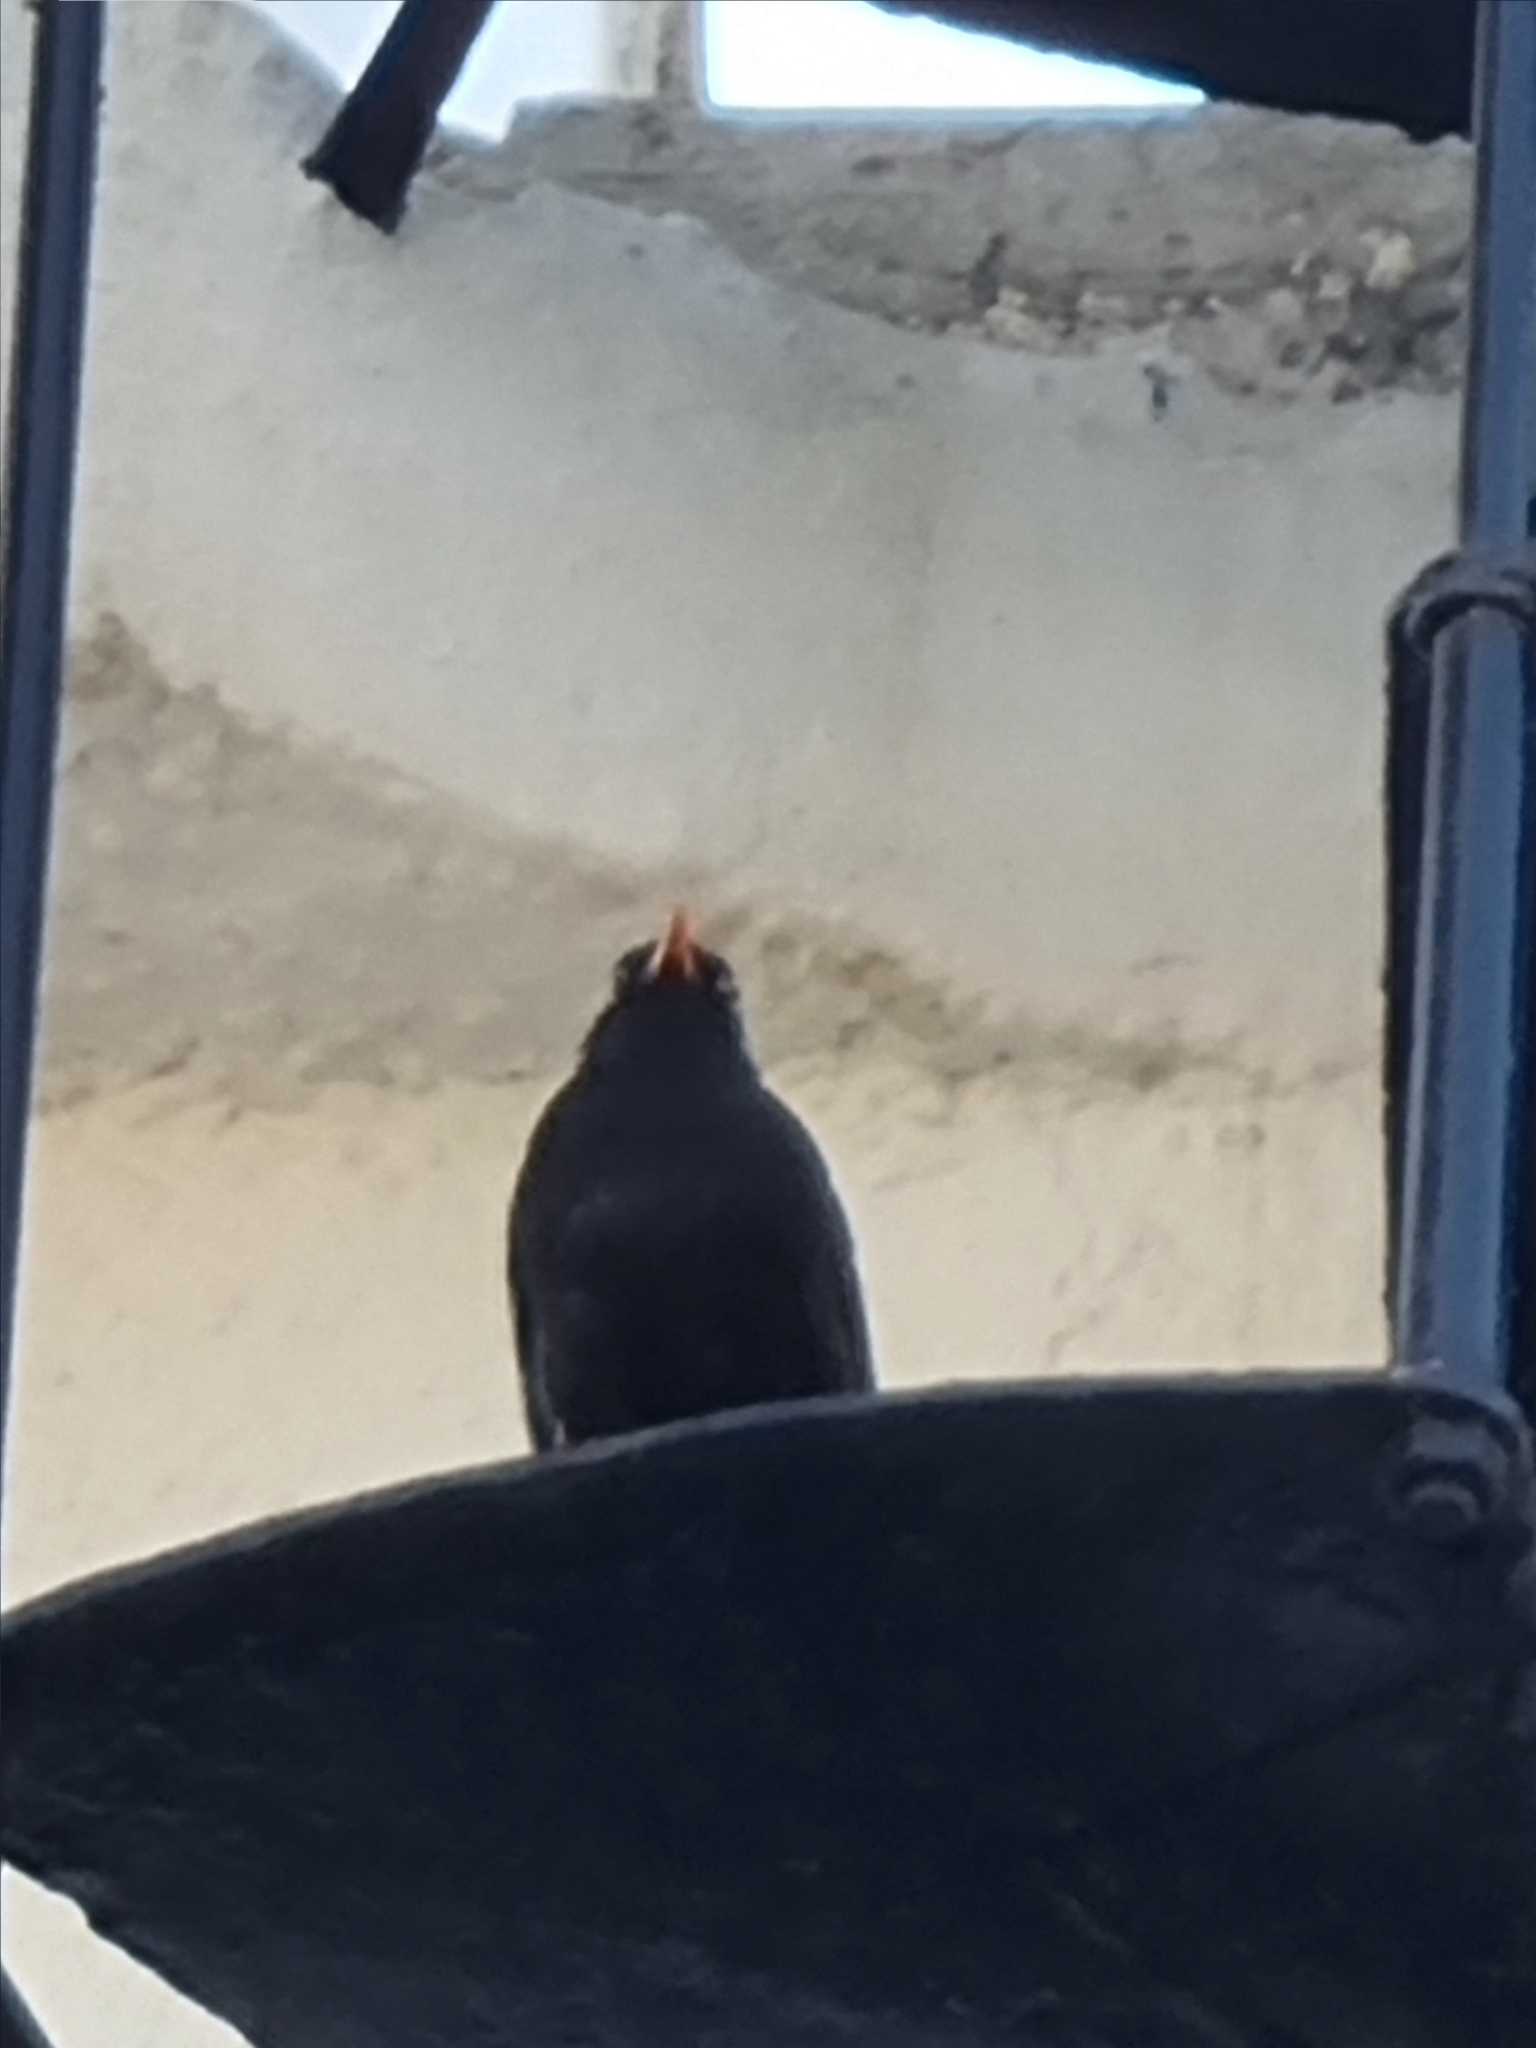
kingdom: Animalia
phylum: Chordata
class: Aves
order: Passeriformes
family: Turdidae
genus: Turdus
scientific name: Turdus merula
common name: Common blackbird
